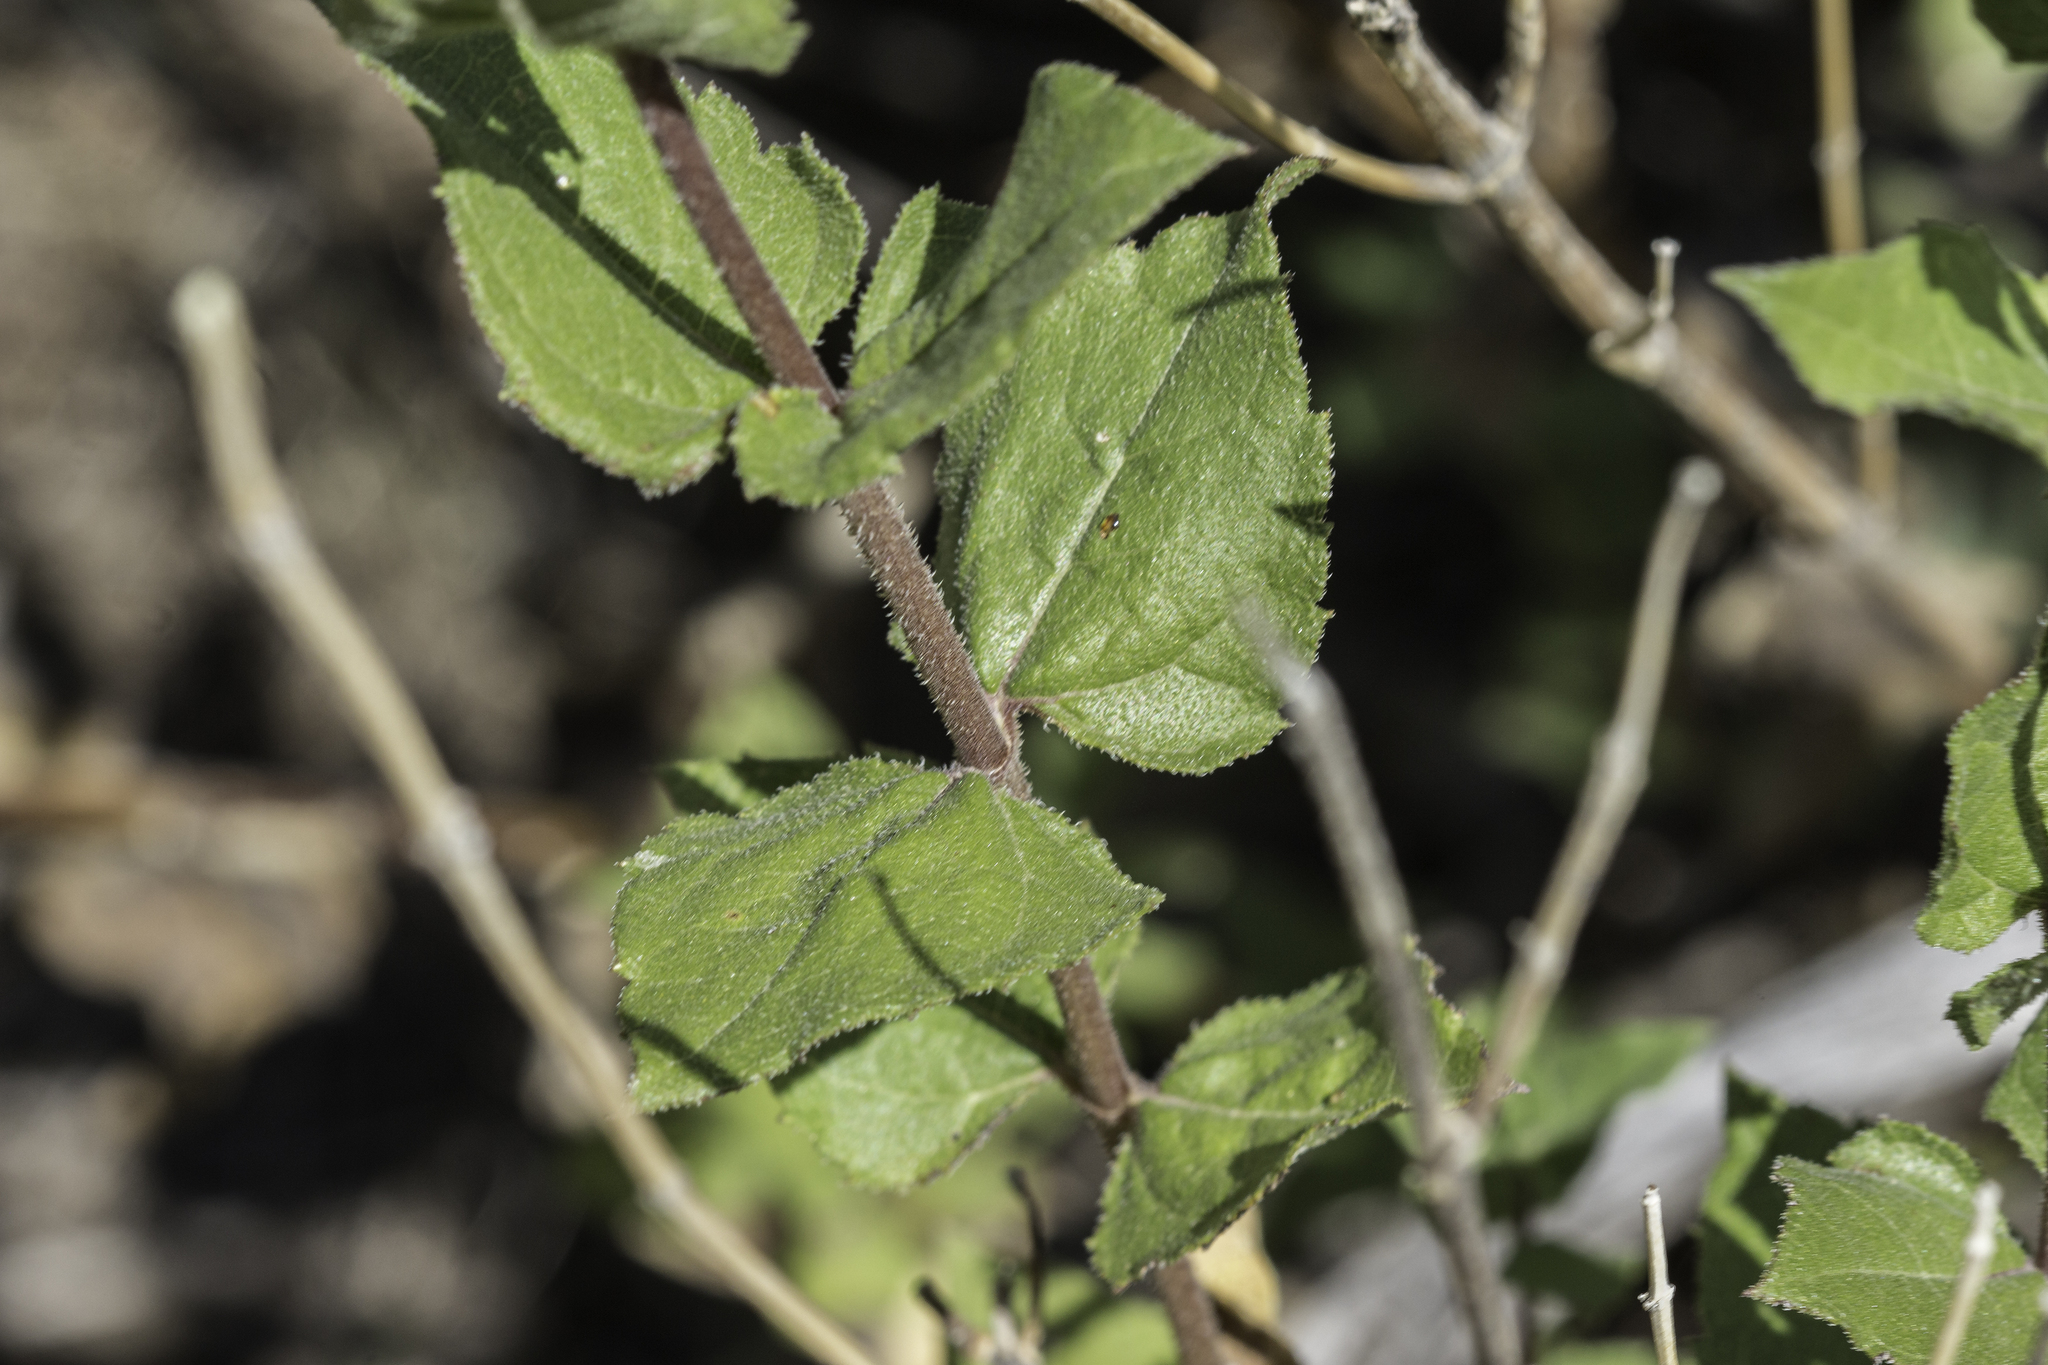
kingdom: Plantae
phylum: Tracheophyta
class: Magnoliopsida
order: Asterales
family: Asteraceae
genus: Aldama
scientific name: Aldama cordifolia
